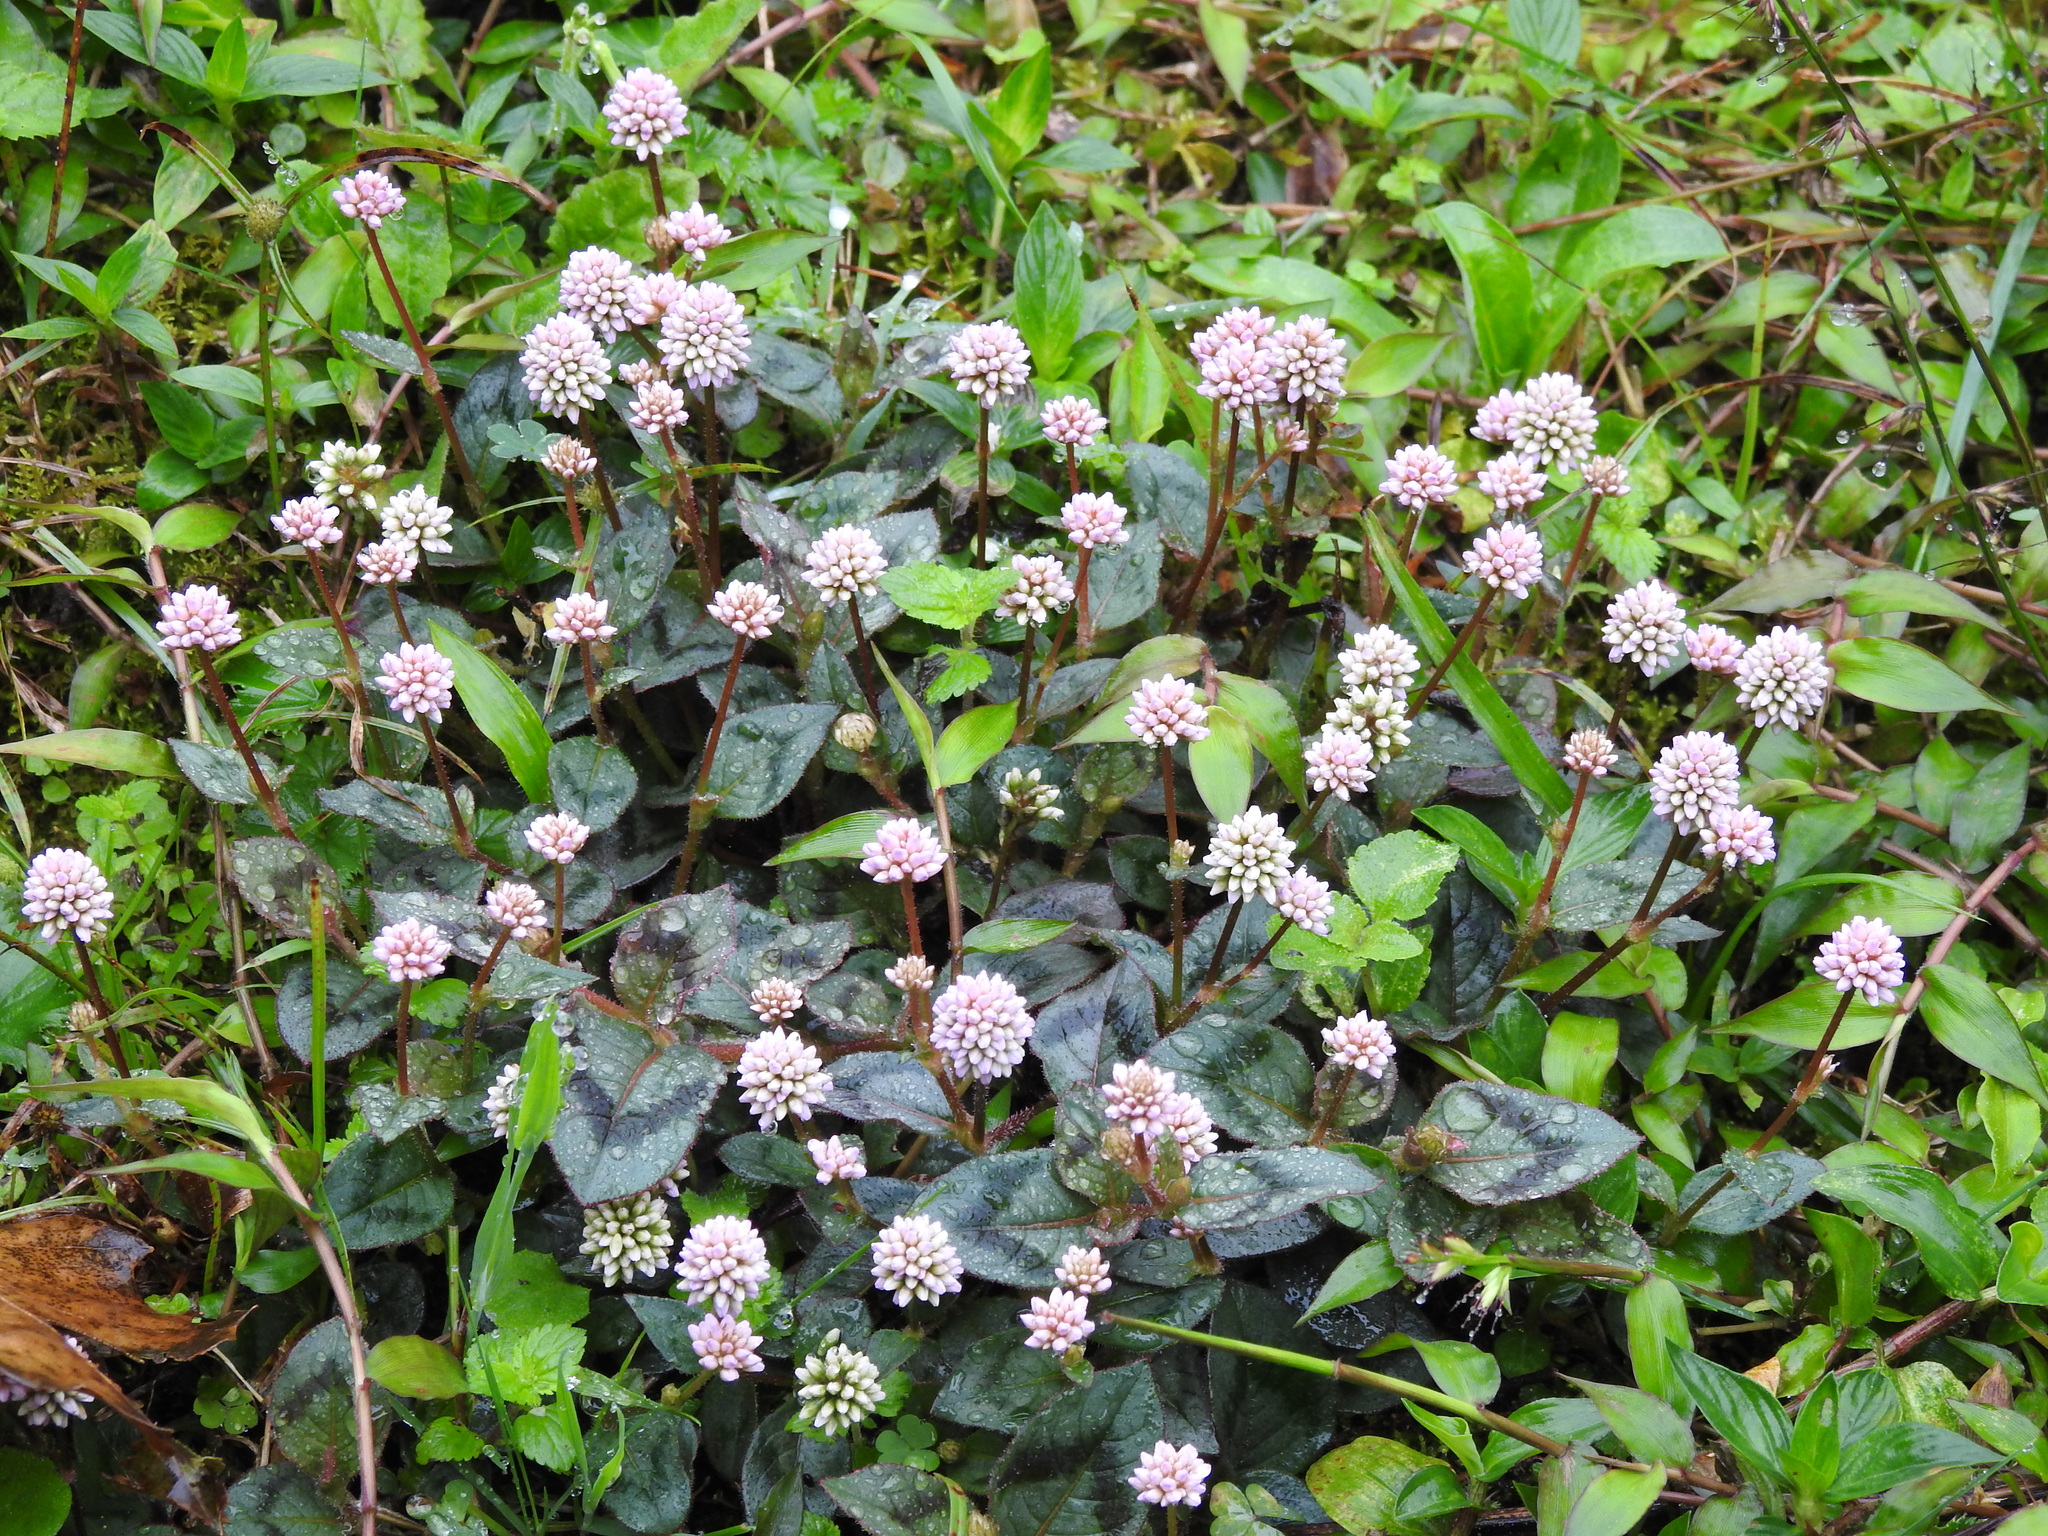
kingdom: Plantae
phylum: Tracheophyta
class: Magnoliopsida
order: Caryophyllales
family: Polygonaceae
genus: Persicaria
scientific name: Persicaria capitata
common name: Pinkhead smartweed
